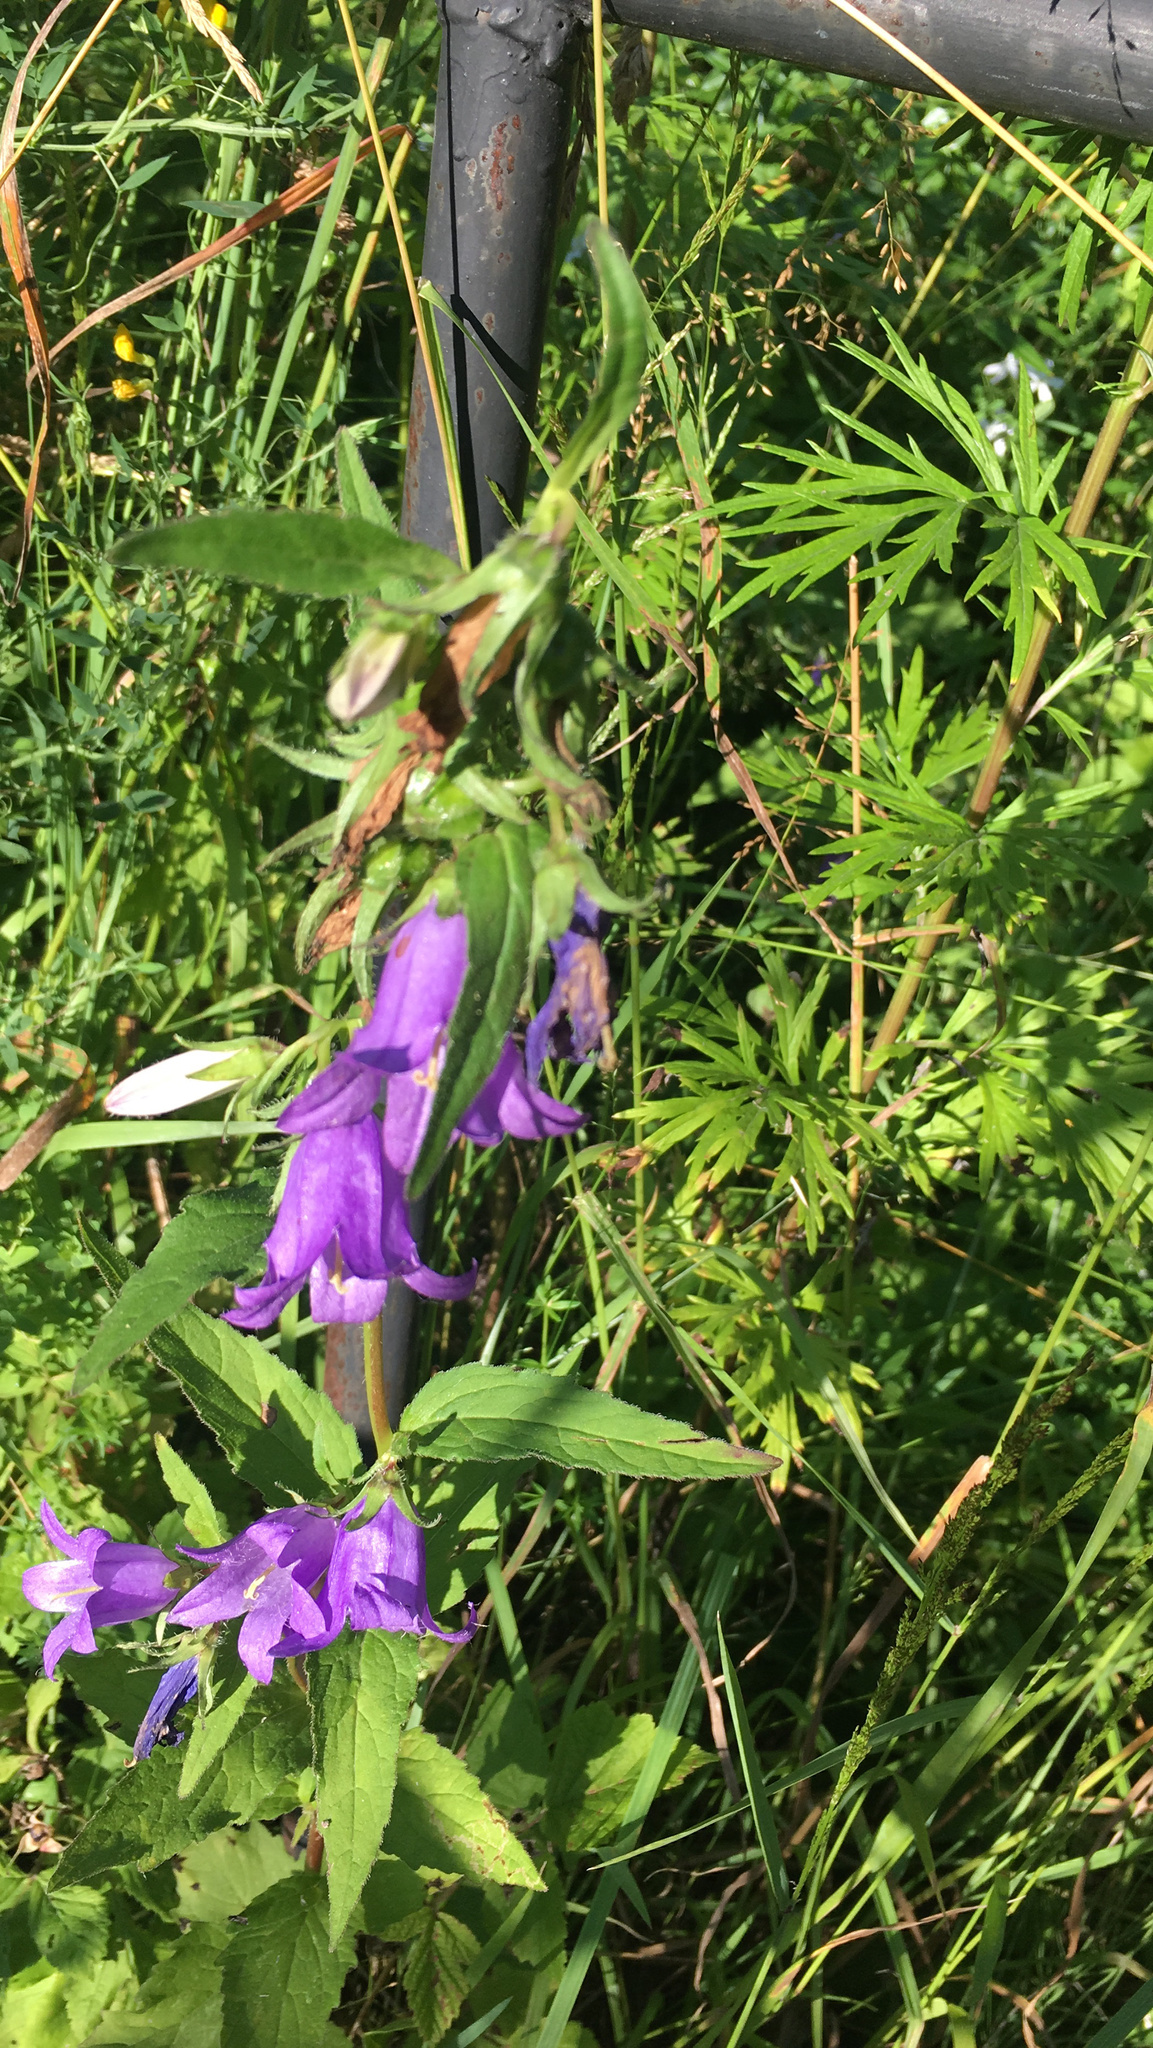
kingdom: Plantae
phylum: Tracheophyta
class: Magnoliopsida
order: Asterales
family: Campanulaceae
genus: Campanula
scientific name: Campanula trachelium
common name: Nettle-leaved bellflower
